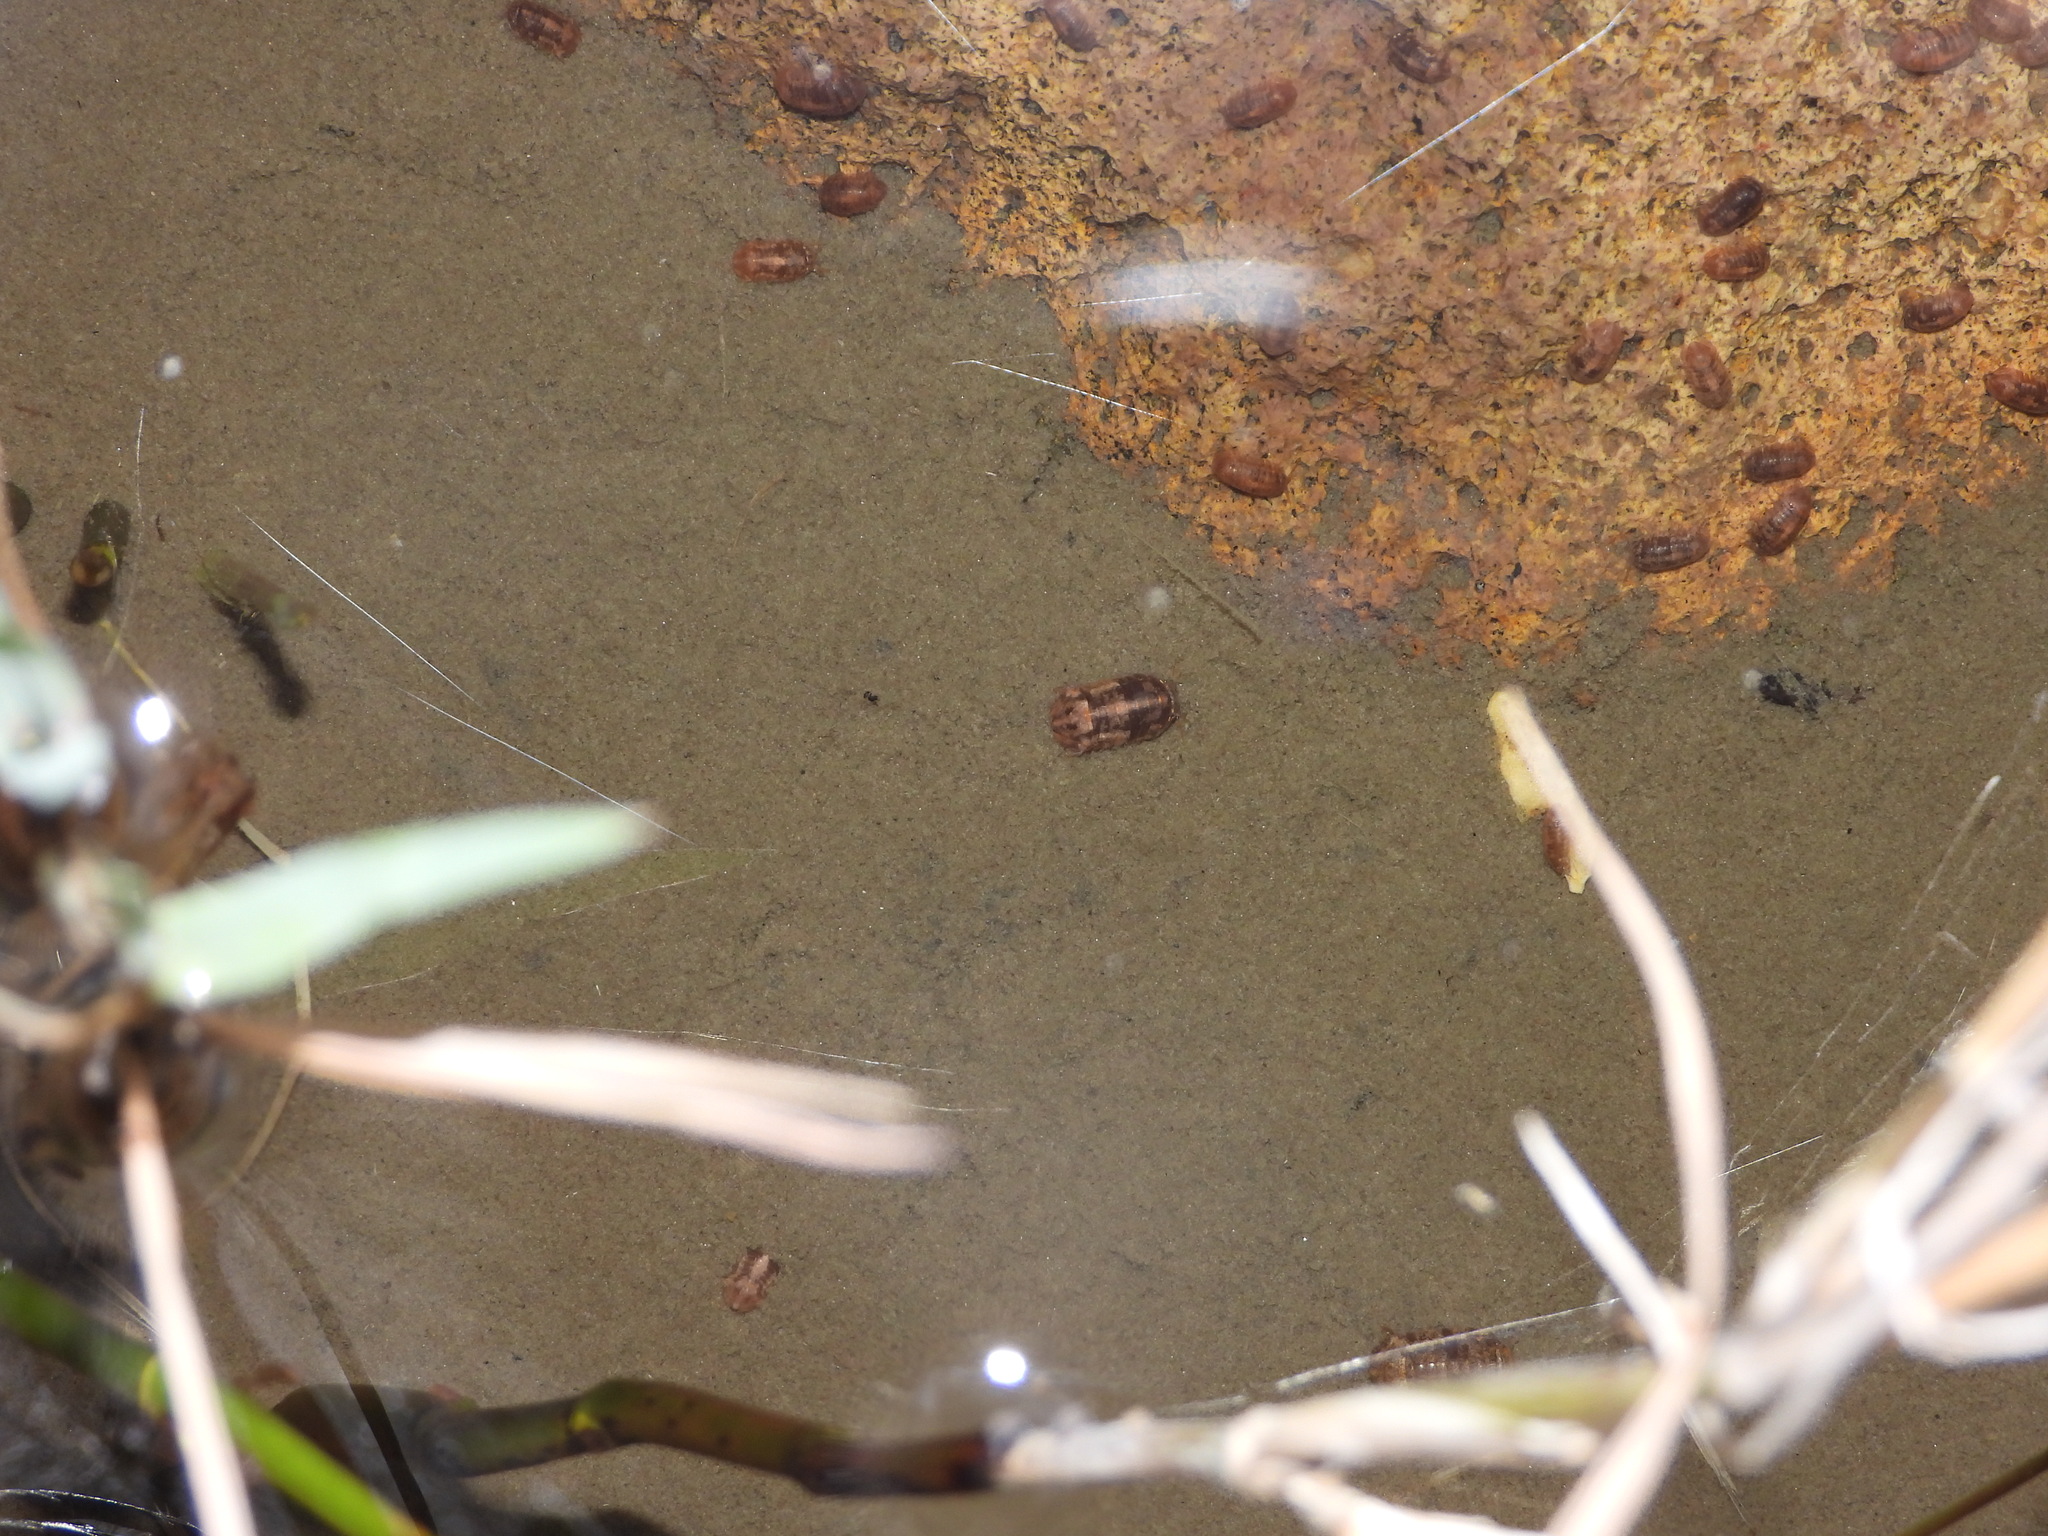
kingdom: Animalia
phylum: Arthropoda
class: Malacostraca
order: Isopoda
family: Sphaeromatidae
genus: Thermosphaeroma
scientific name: Thermosphaeroma thermophilum
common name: Socorro isopod
